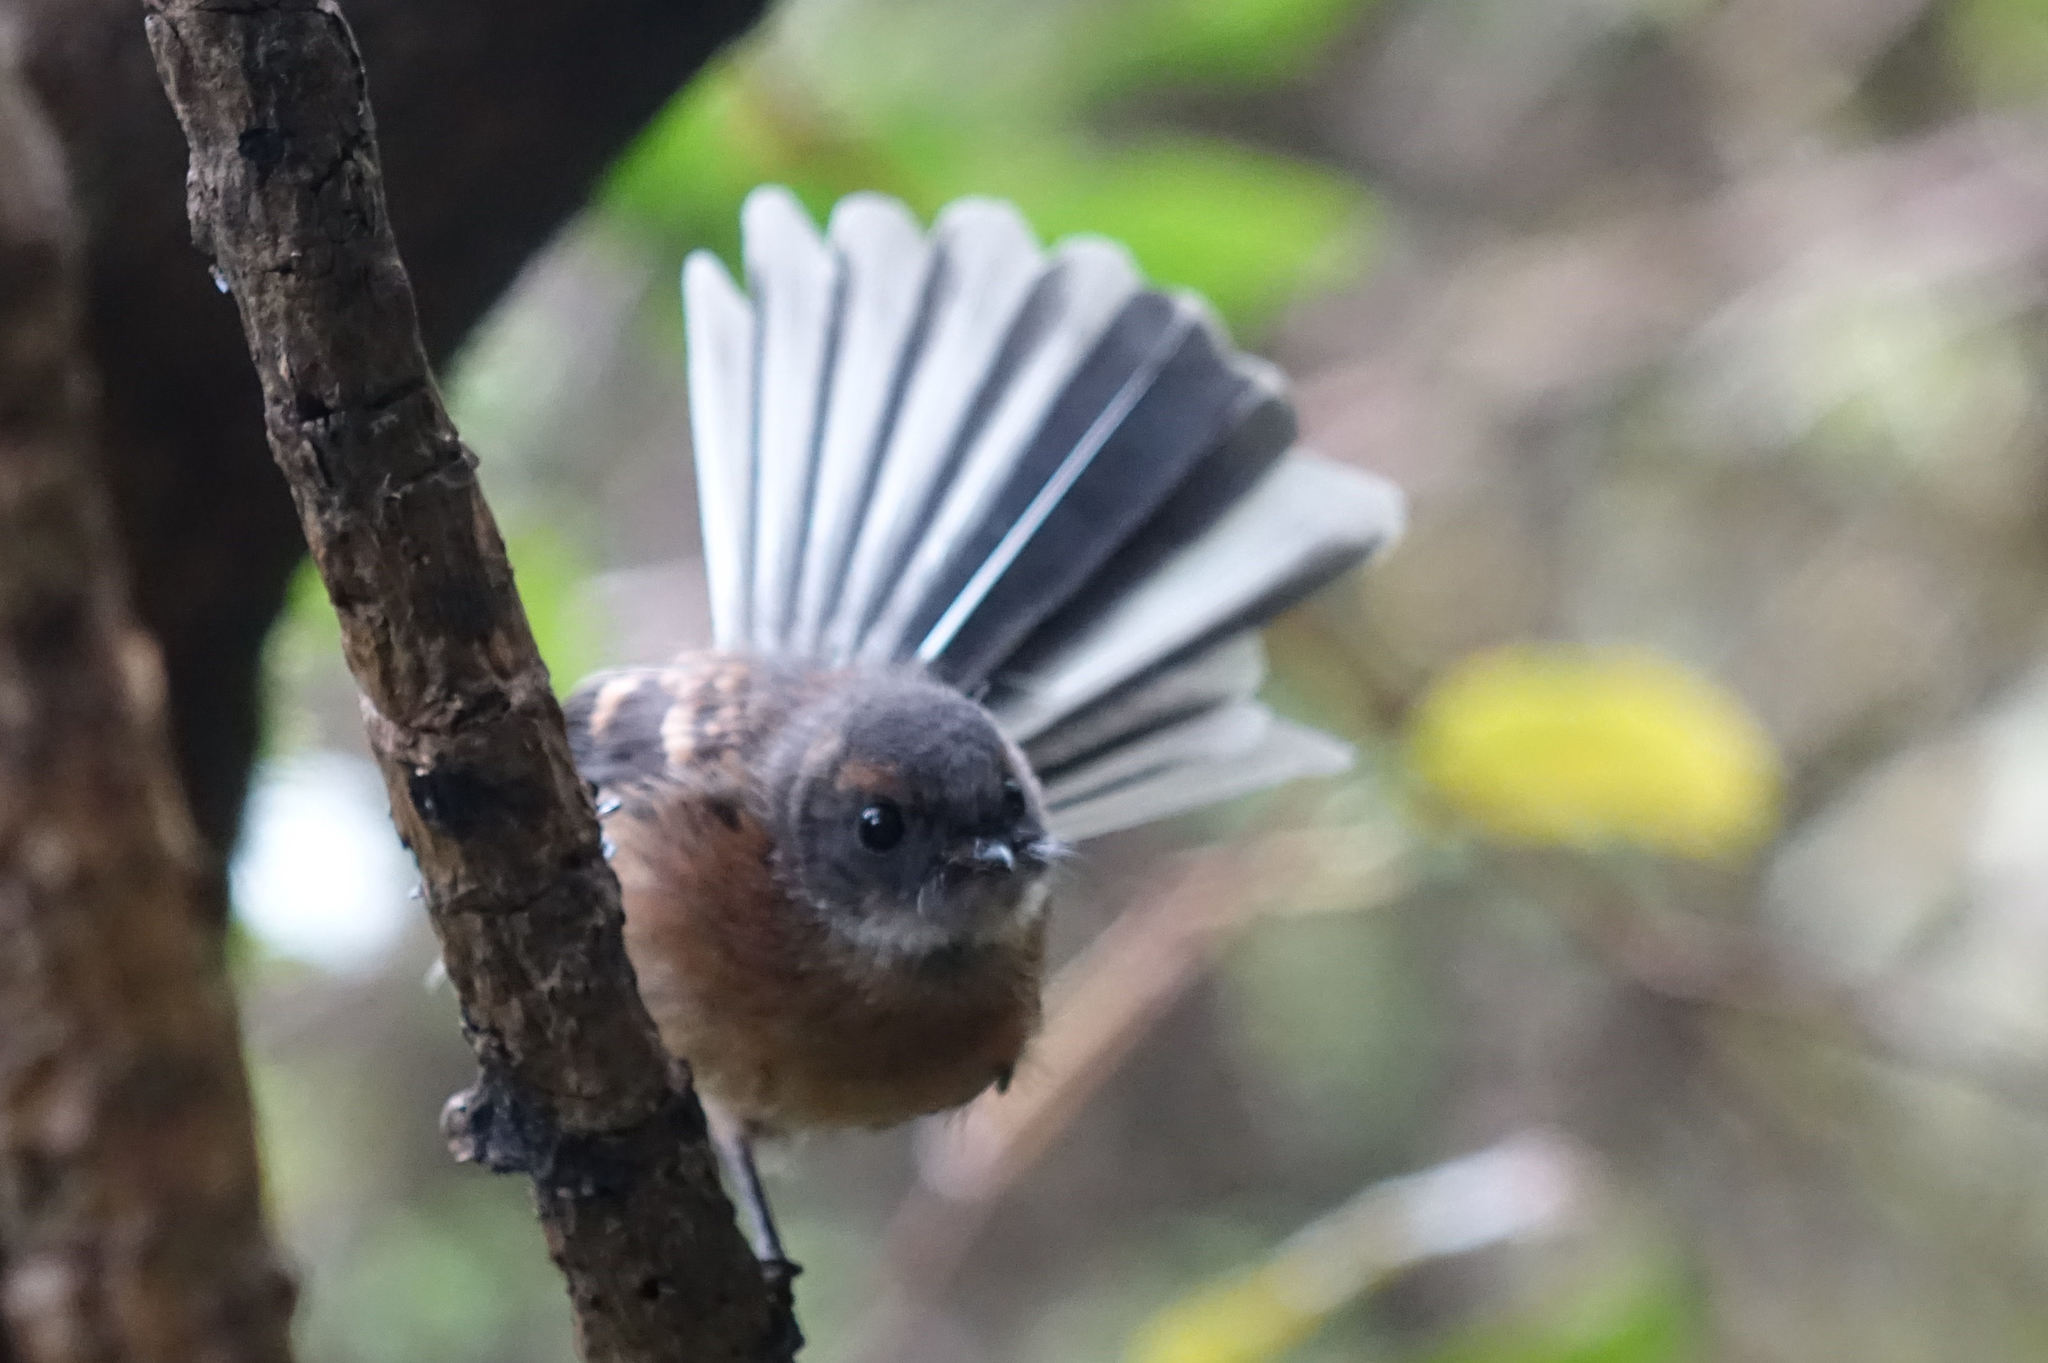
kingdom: Animalia
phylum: Chordata
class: Aves
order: Passeriformes
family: Rhipiduridae
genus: Rhipidura
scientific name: Rhipidura fuliginosa
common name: New zealand fantail
